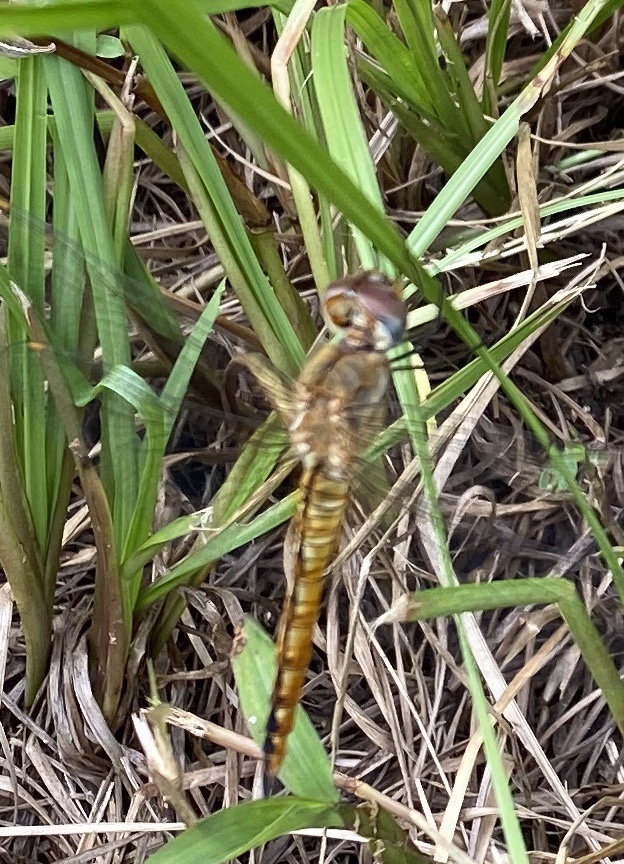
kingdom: Animalia
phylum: Arthropoda
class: Insecta
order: Odonata
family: Libellulidae
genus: Pantala
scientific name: Pantala flavescens
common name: Wandering glider
